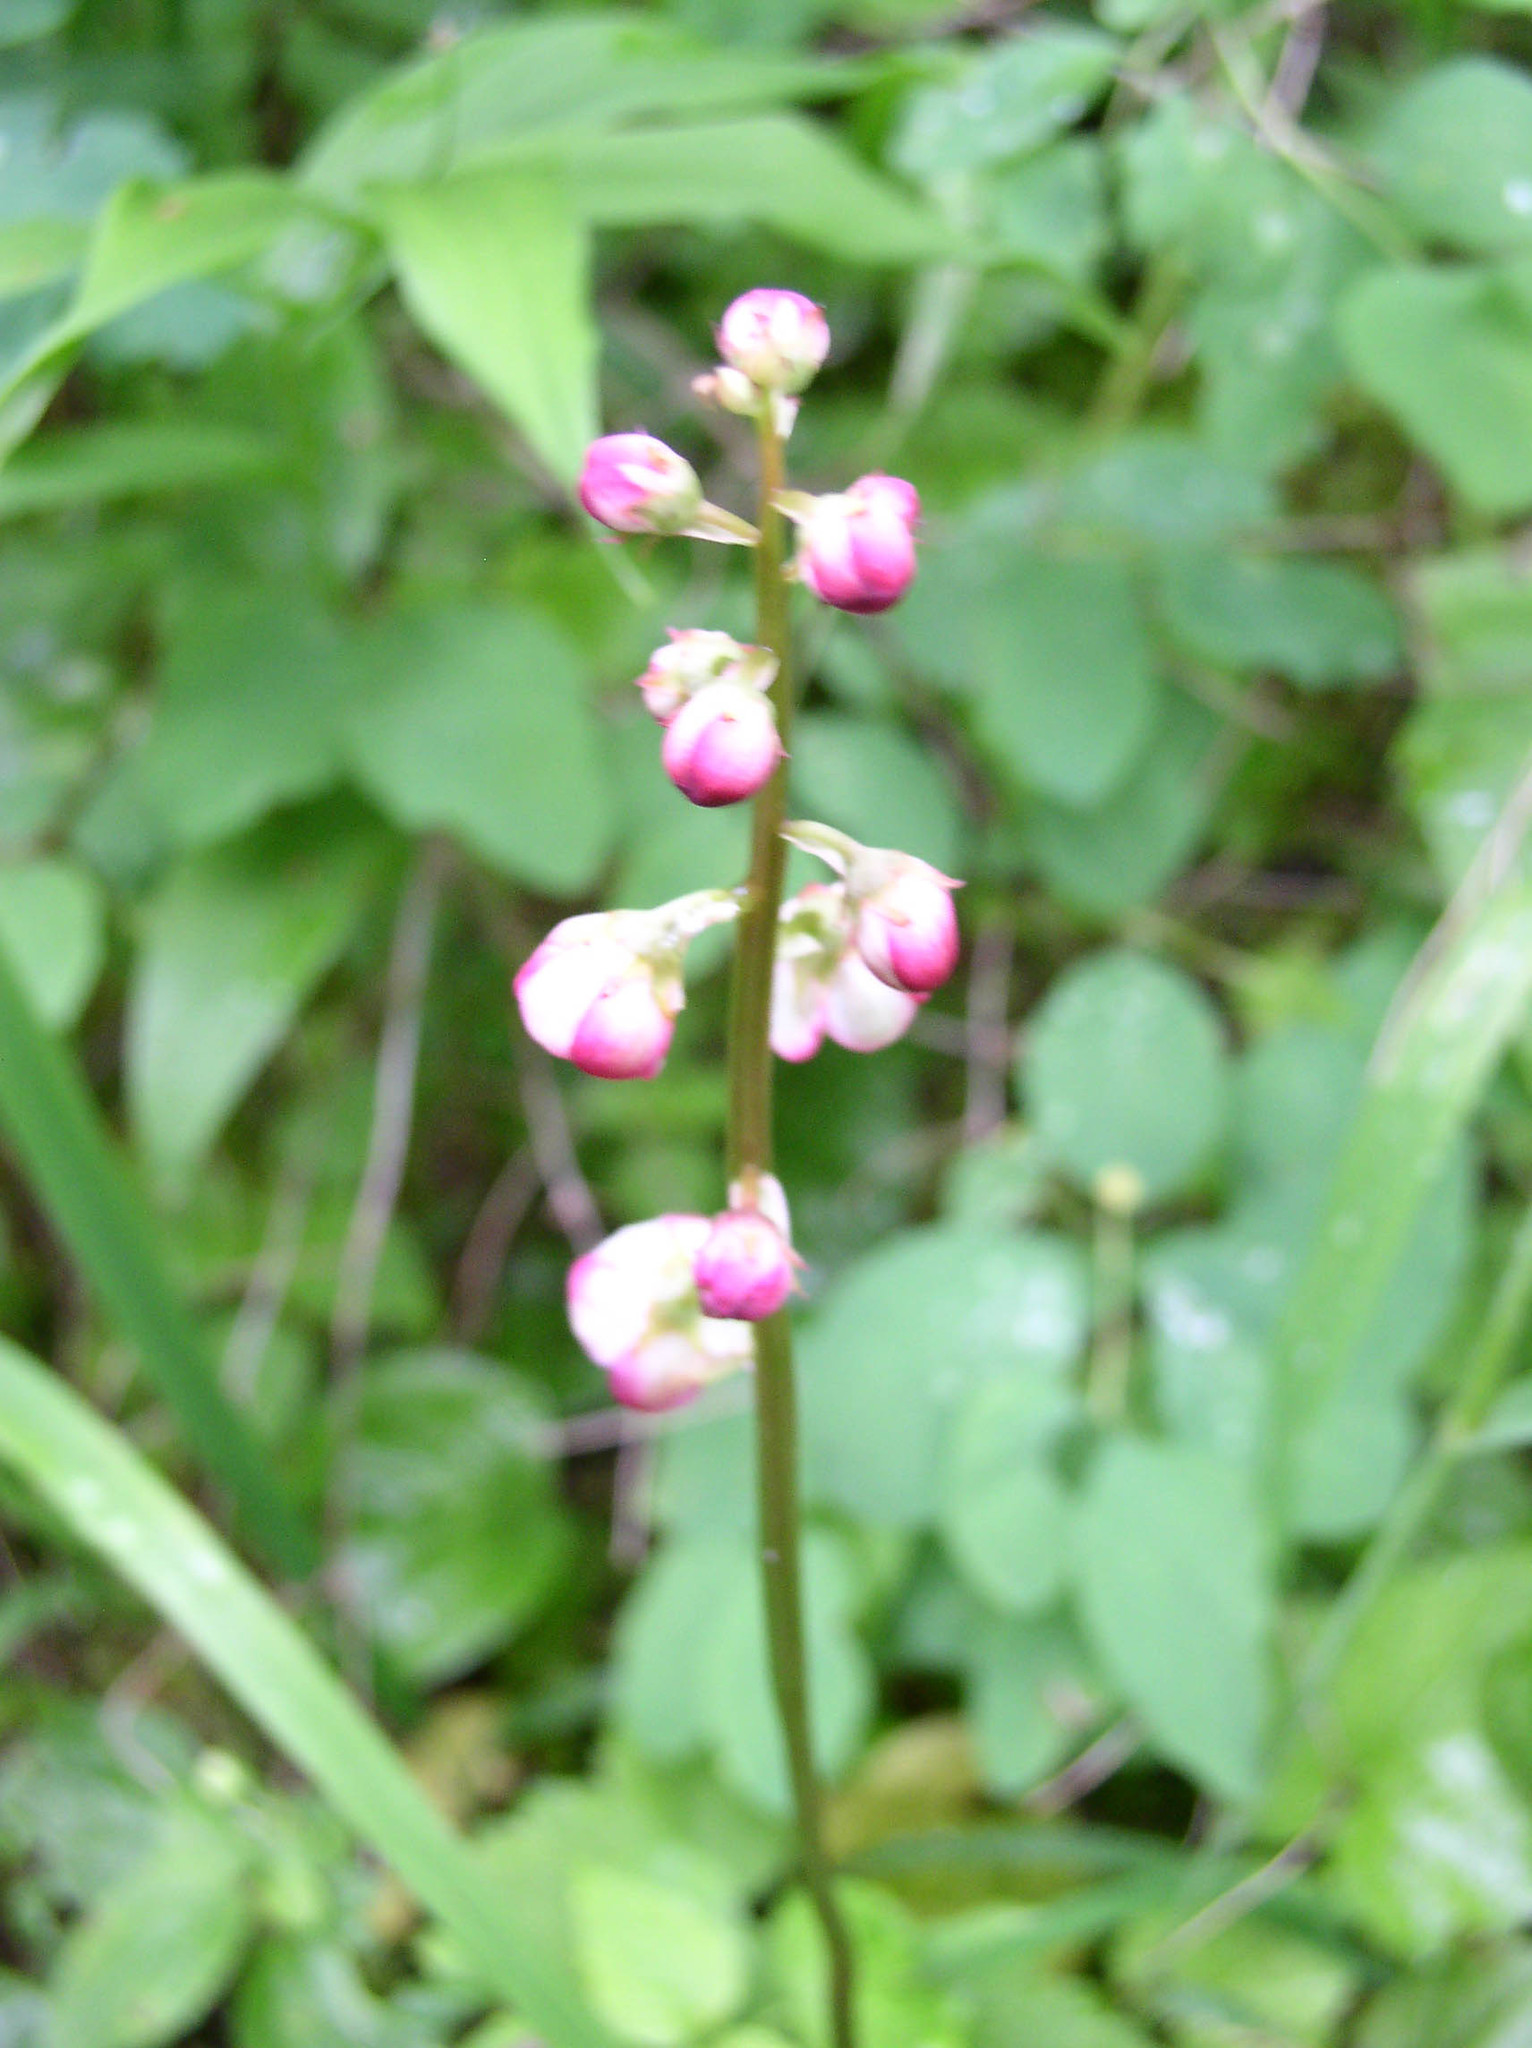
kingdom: Plantae
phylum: Tracheophyta
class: Magnoliopsida
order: Ericales
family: Ericaceae
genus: Pyrola
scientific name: Pyrola asarifolia
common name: Bog wintergreen
